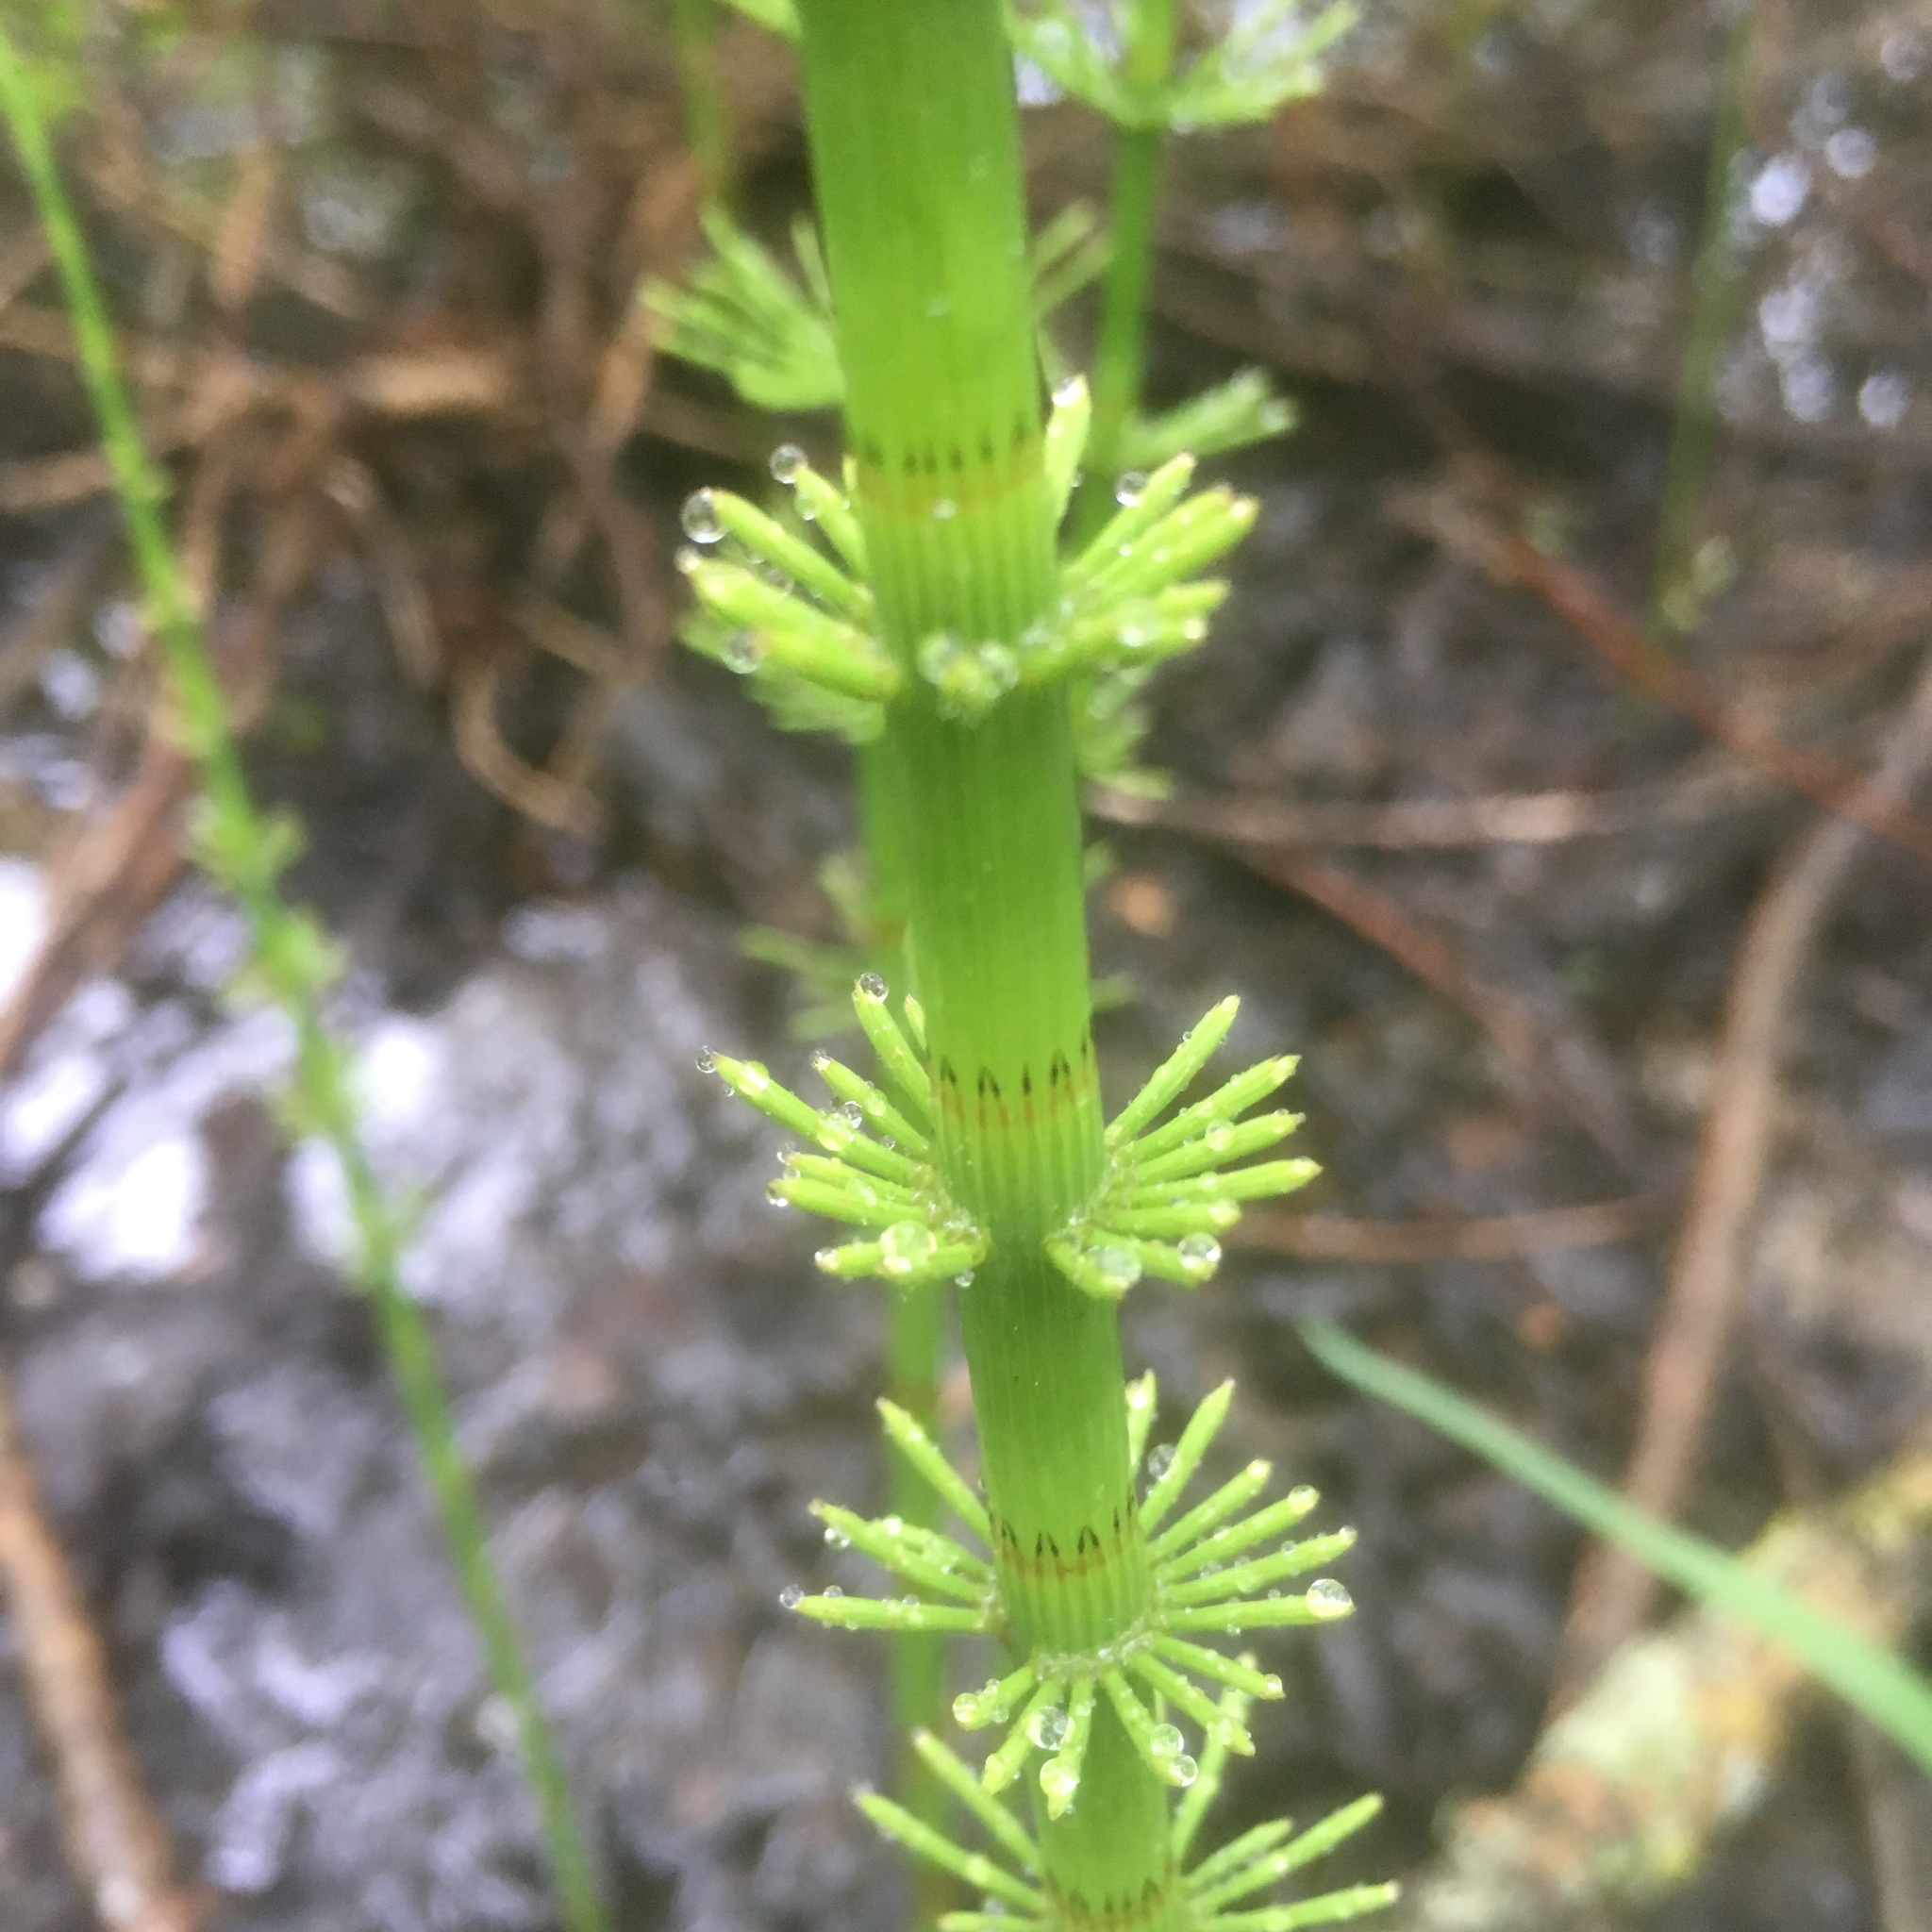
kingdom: Plantae
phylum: Tracheophyta
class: Polypodiopsida
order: Equisetales
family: Equisetaceae
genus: Equisetum
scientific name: Equisetum fluviatile
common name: Water horsetail
